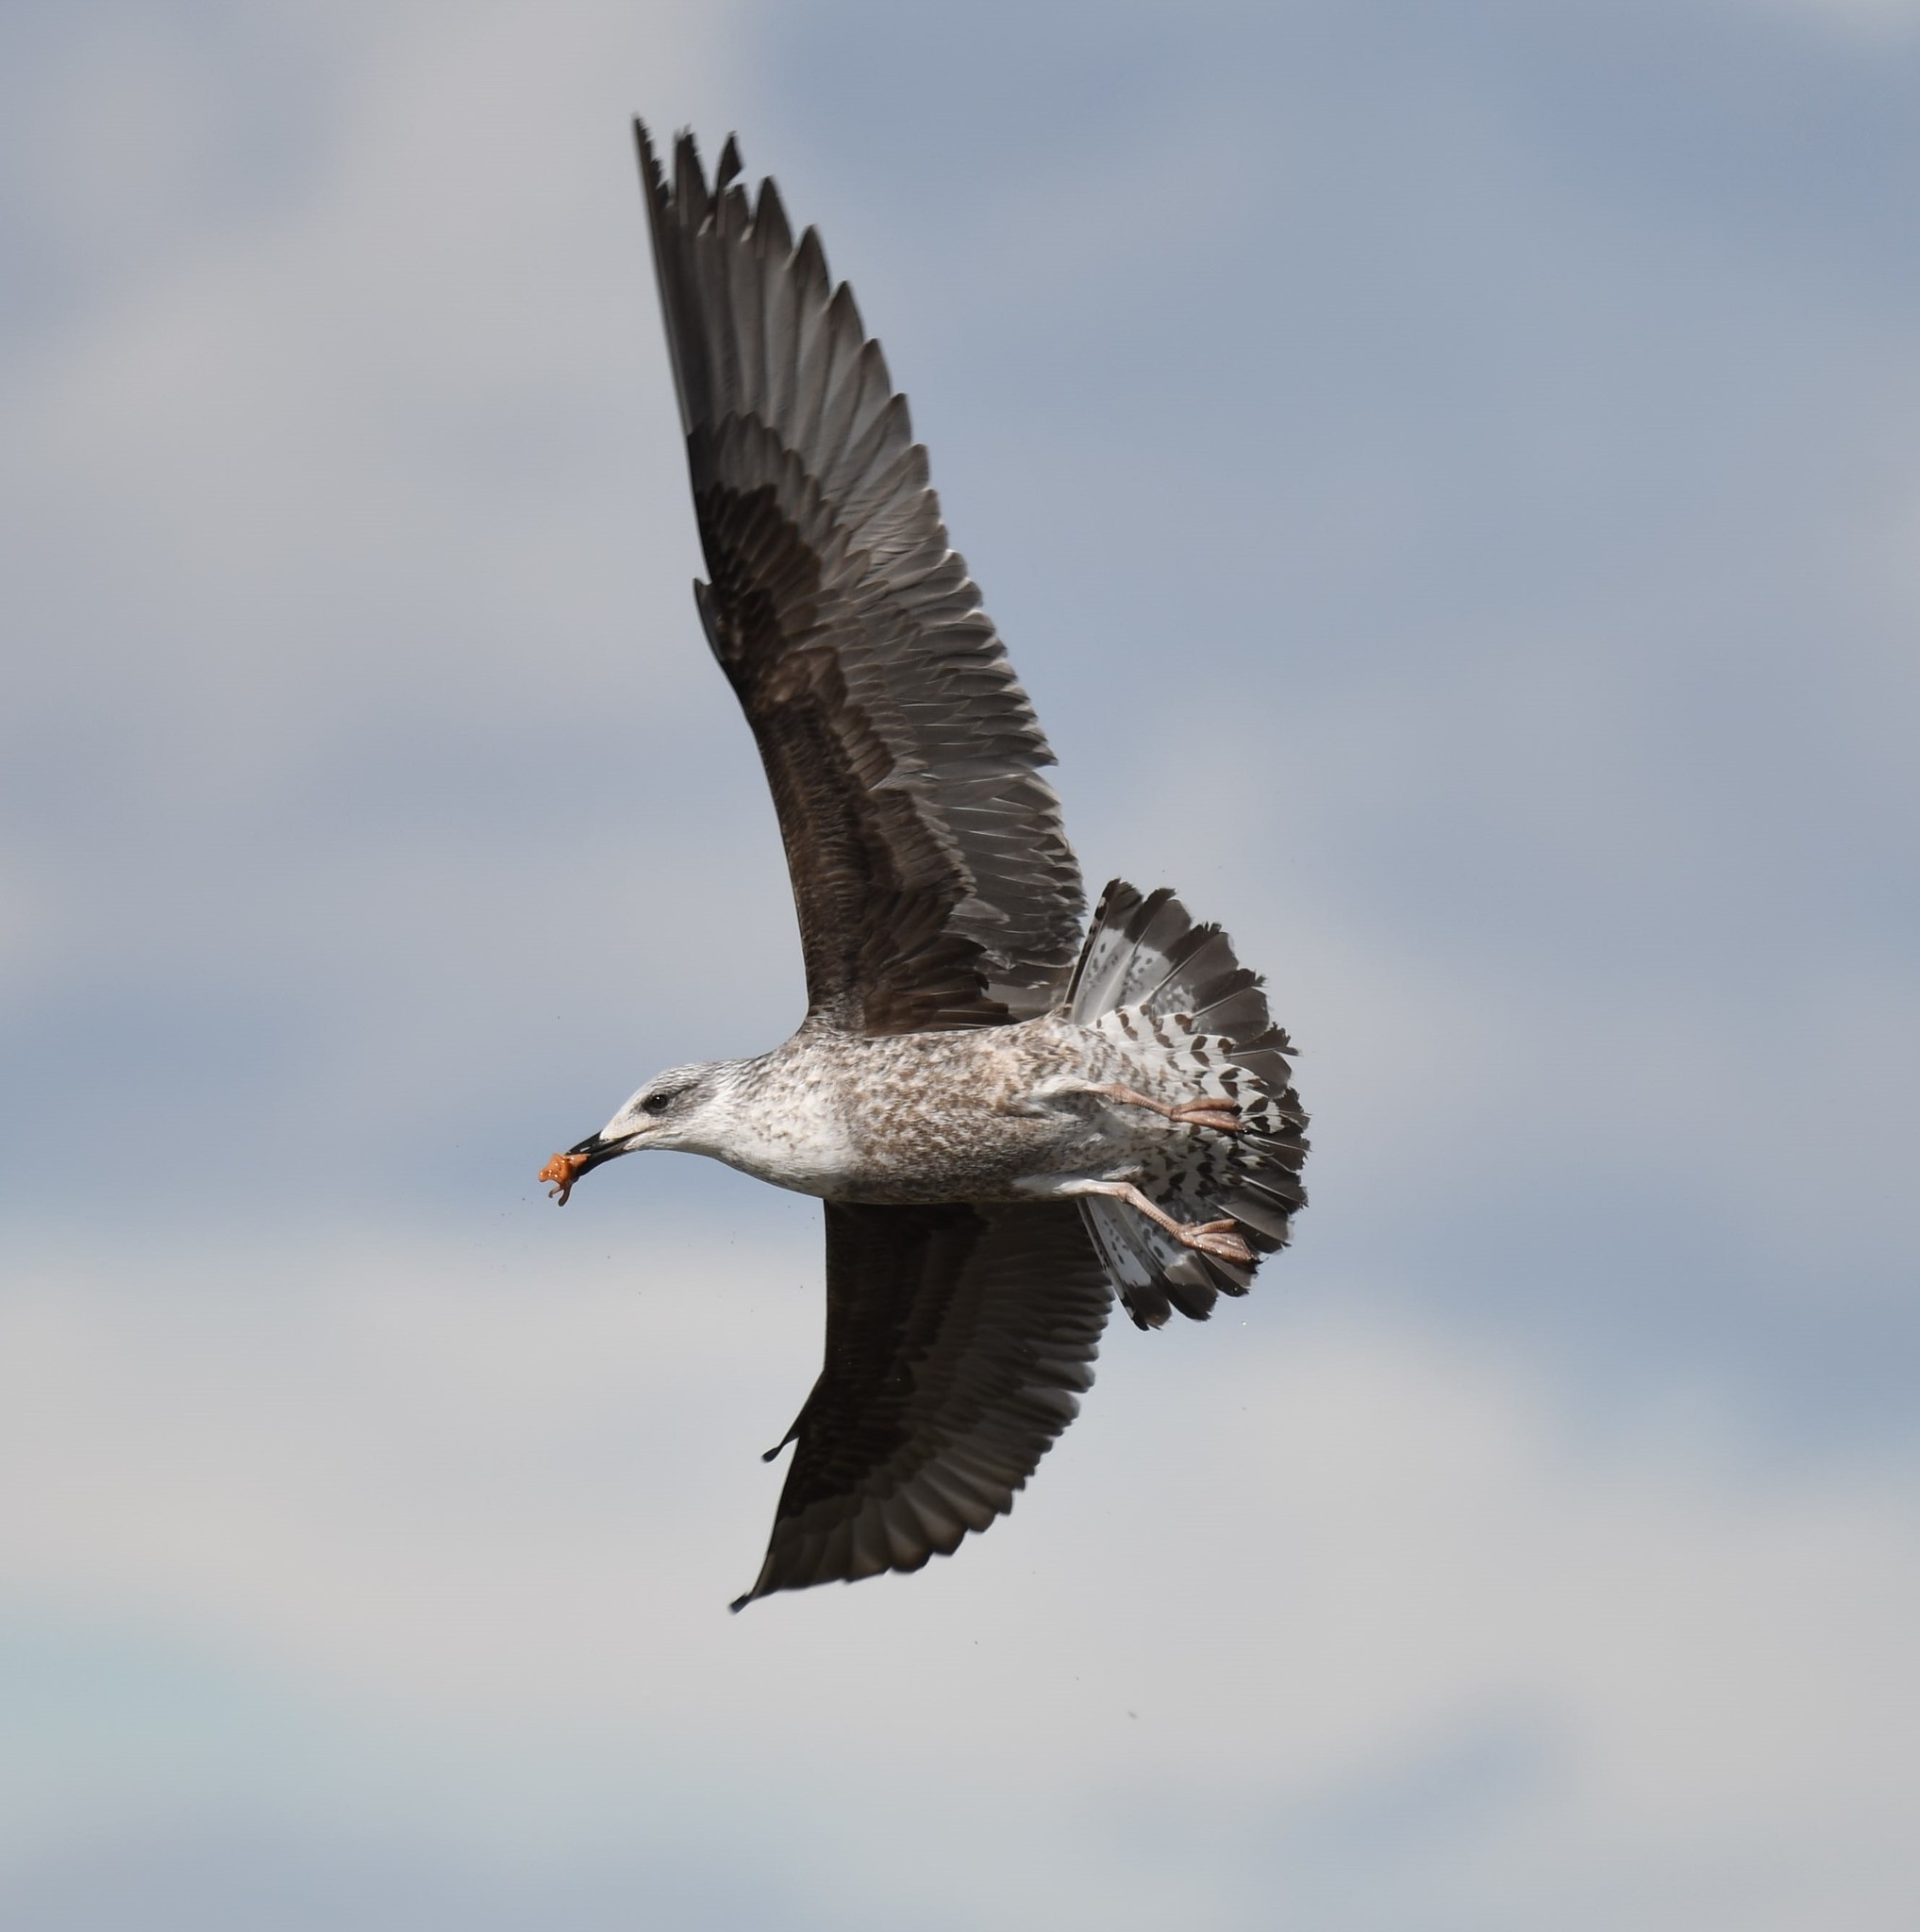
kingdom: Animalia
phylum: Chordata
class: Aves
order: Charadriiformes
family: Laridae
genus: Larus
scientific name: Larus fuscus
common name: Lesser black-backed gull
